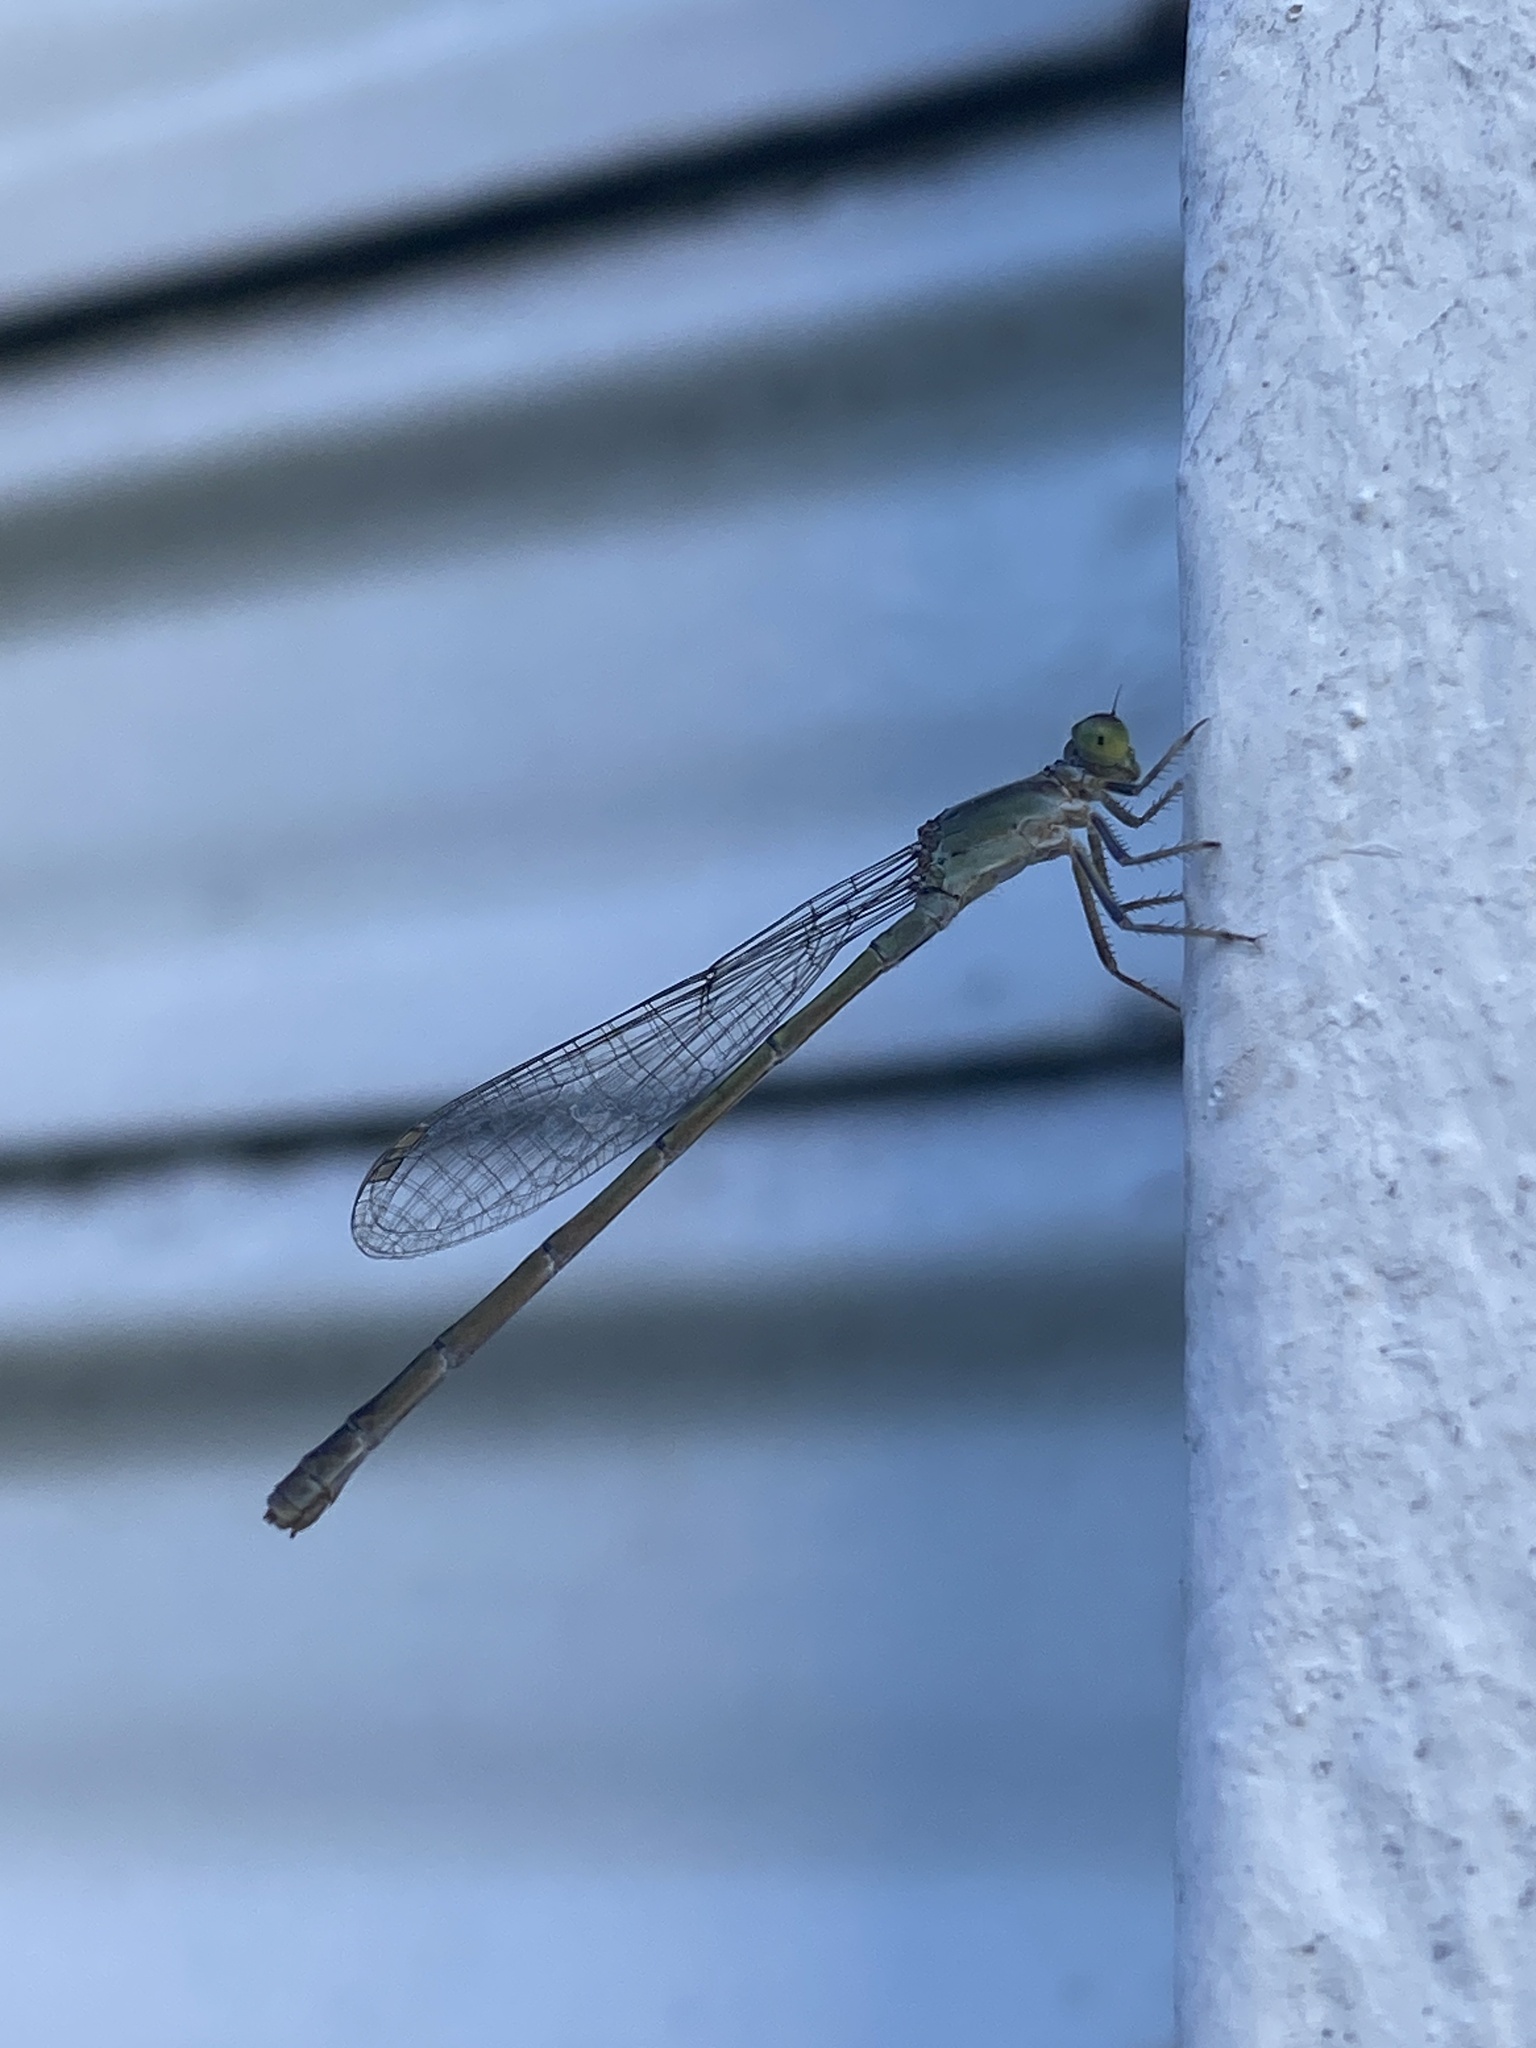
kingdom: Animalia
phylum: Arthropoda
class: Insecta
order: Odonata
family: Coenagrionidae
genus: Ischnura
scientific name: Ischnura fluviatilis
